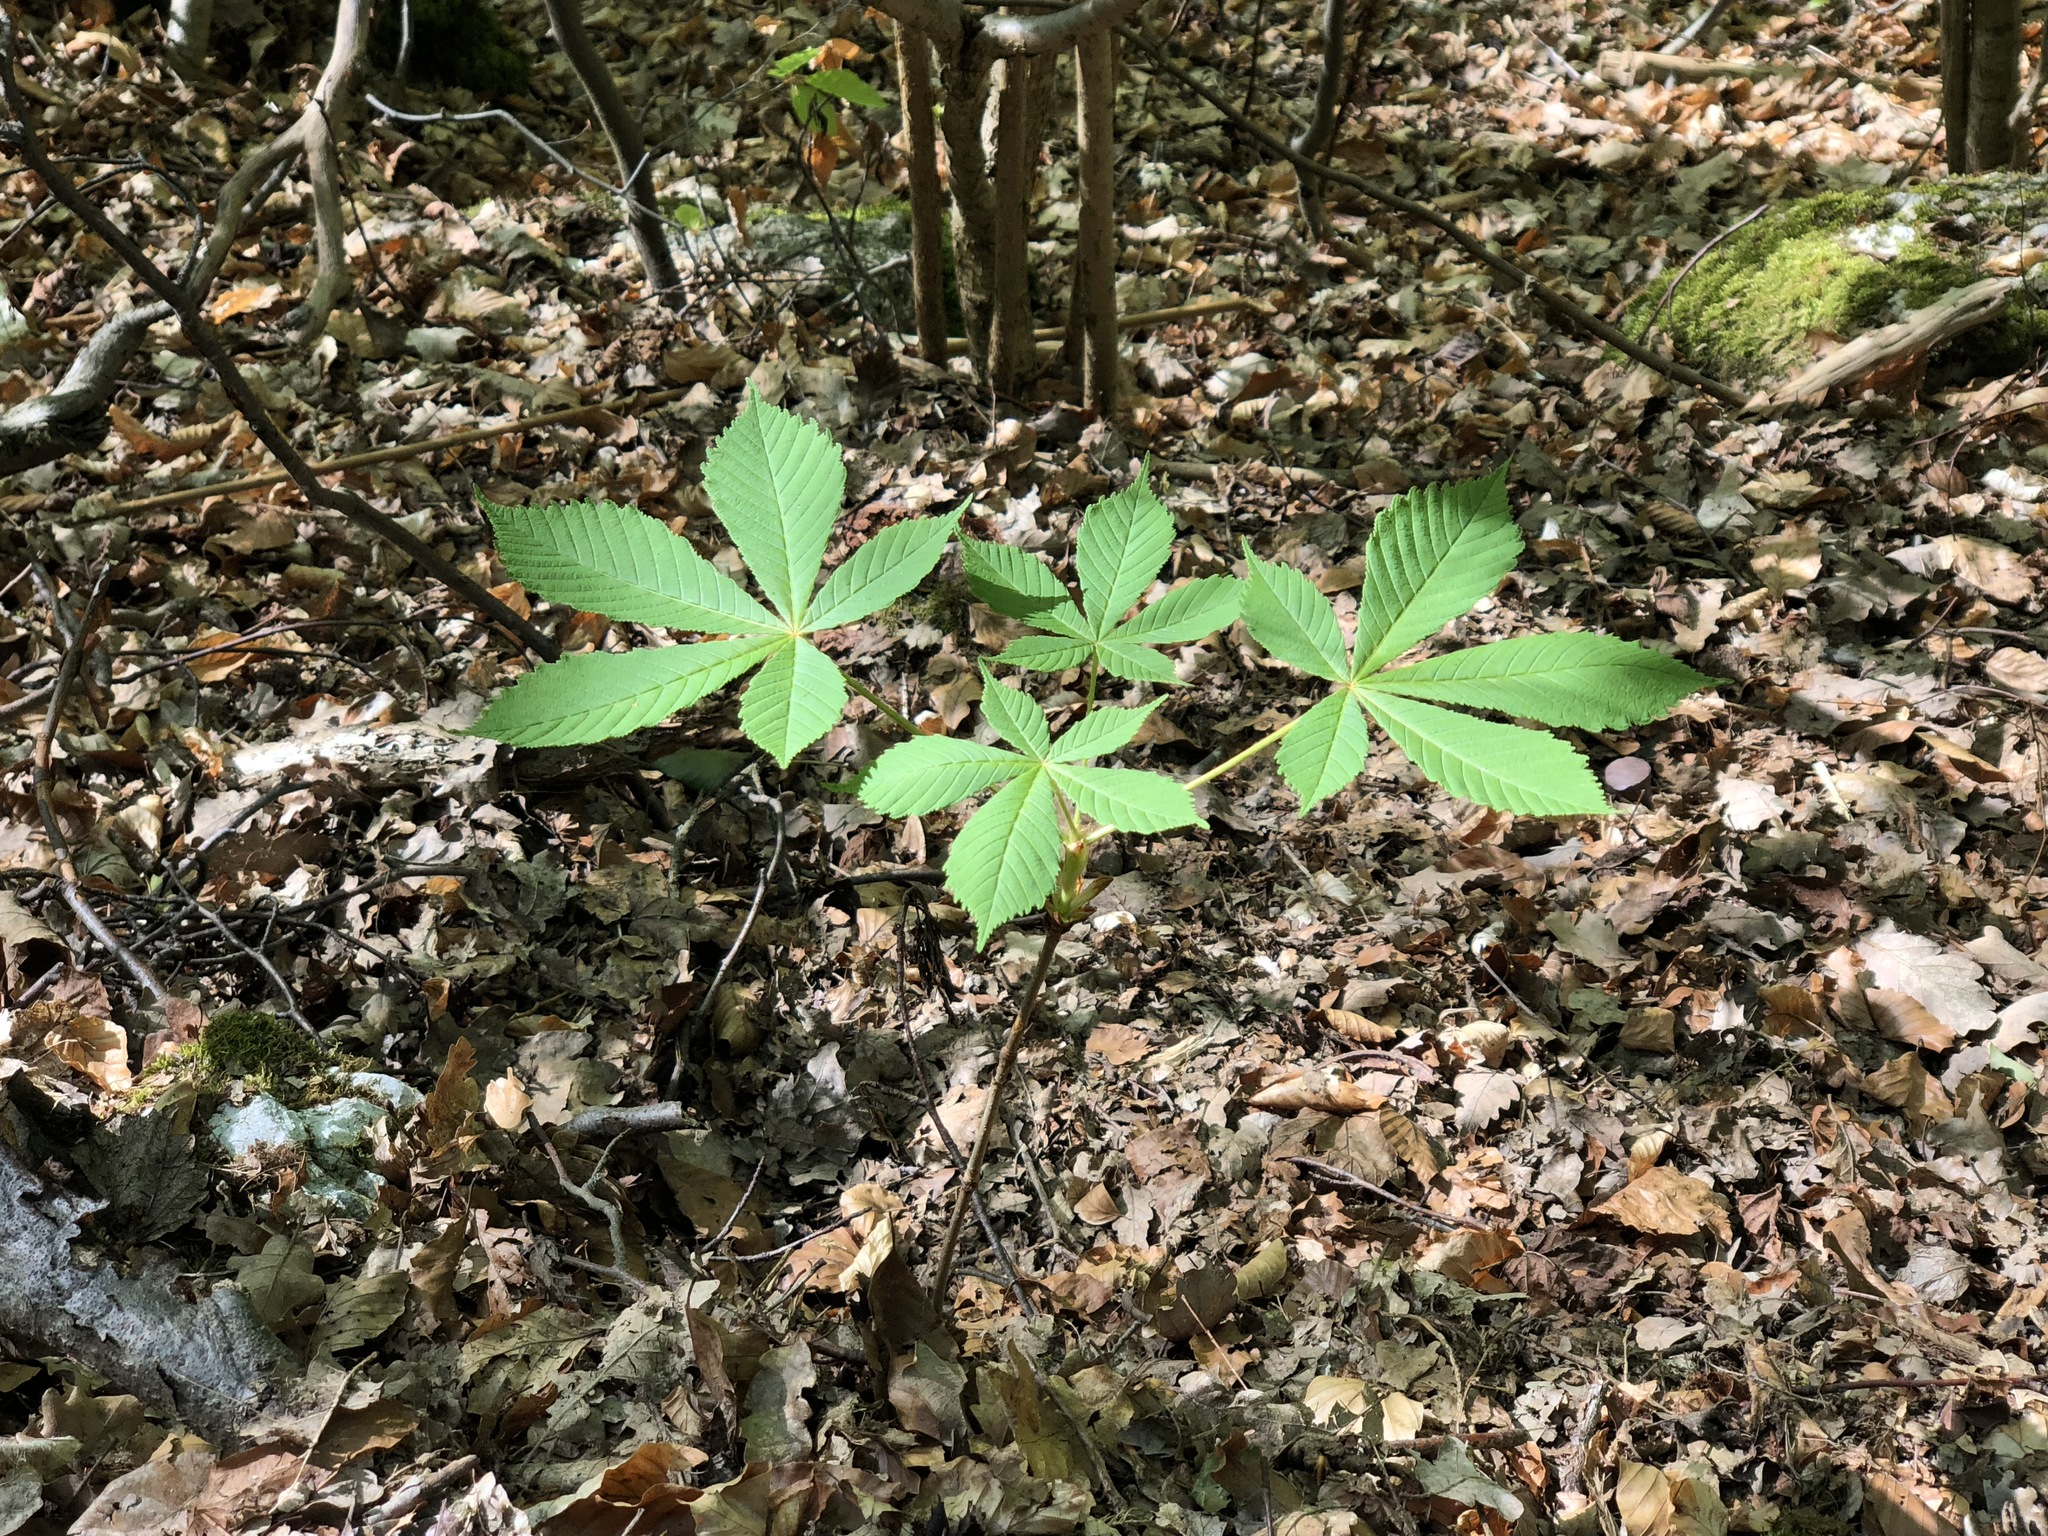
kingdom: Plantae
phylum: Tracheophyta
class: Magnoliopsida
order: Sapindales
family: Sapindaceae
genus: Aesculus
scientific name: Aesculus hippocastanum
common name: Horse-chestnut
